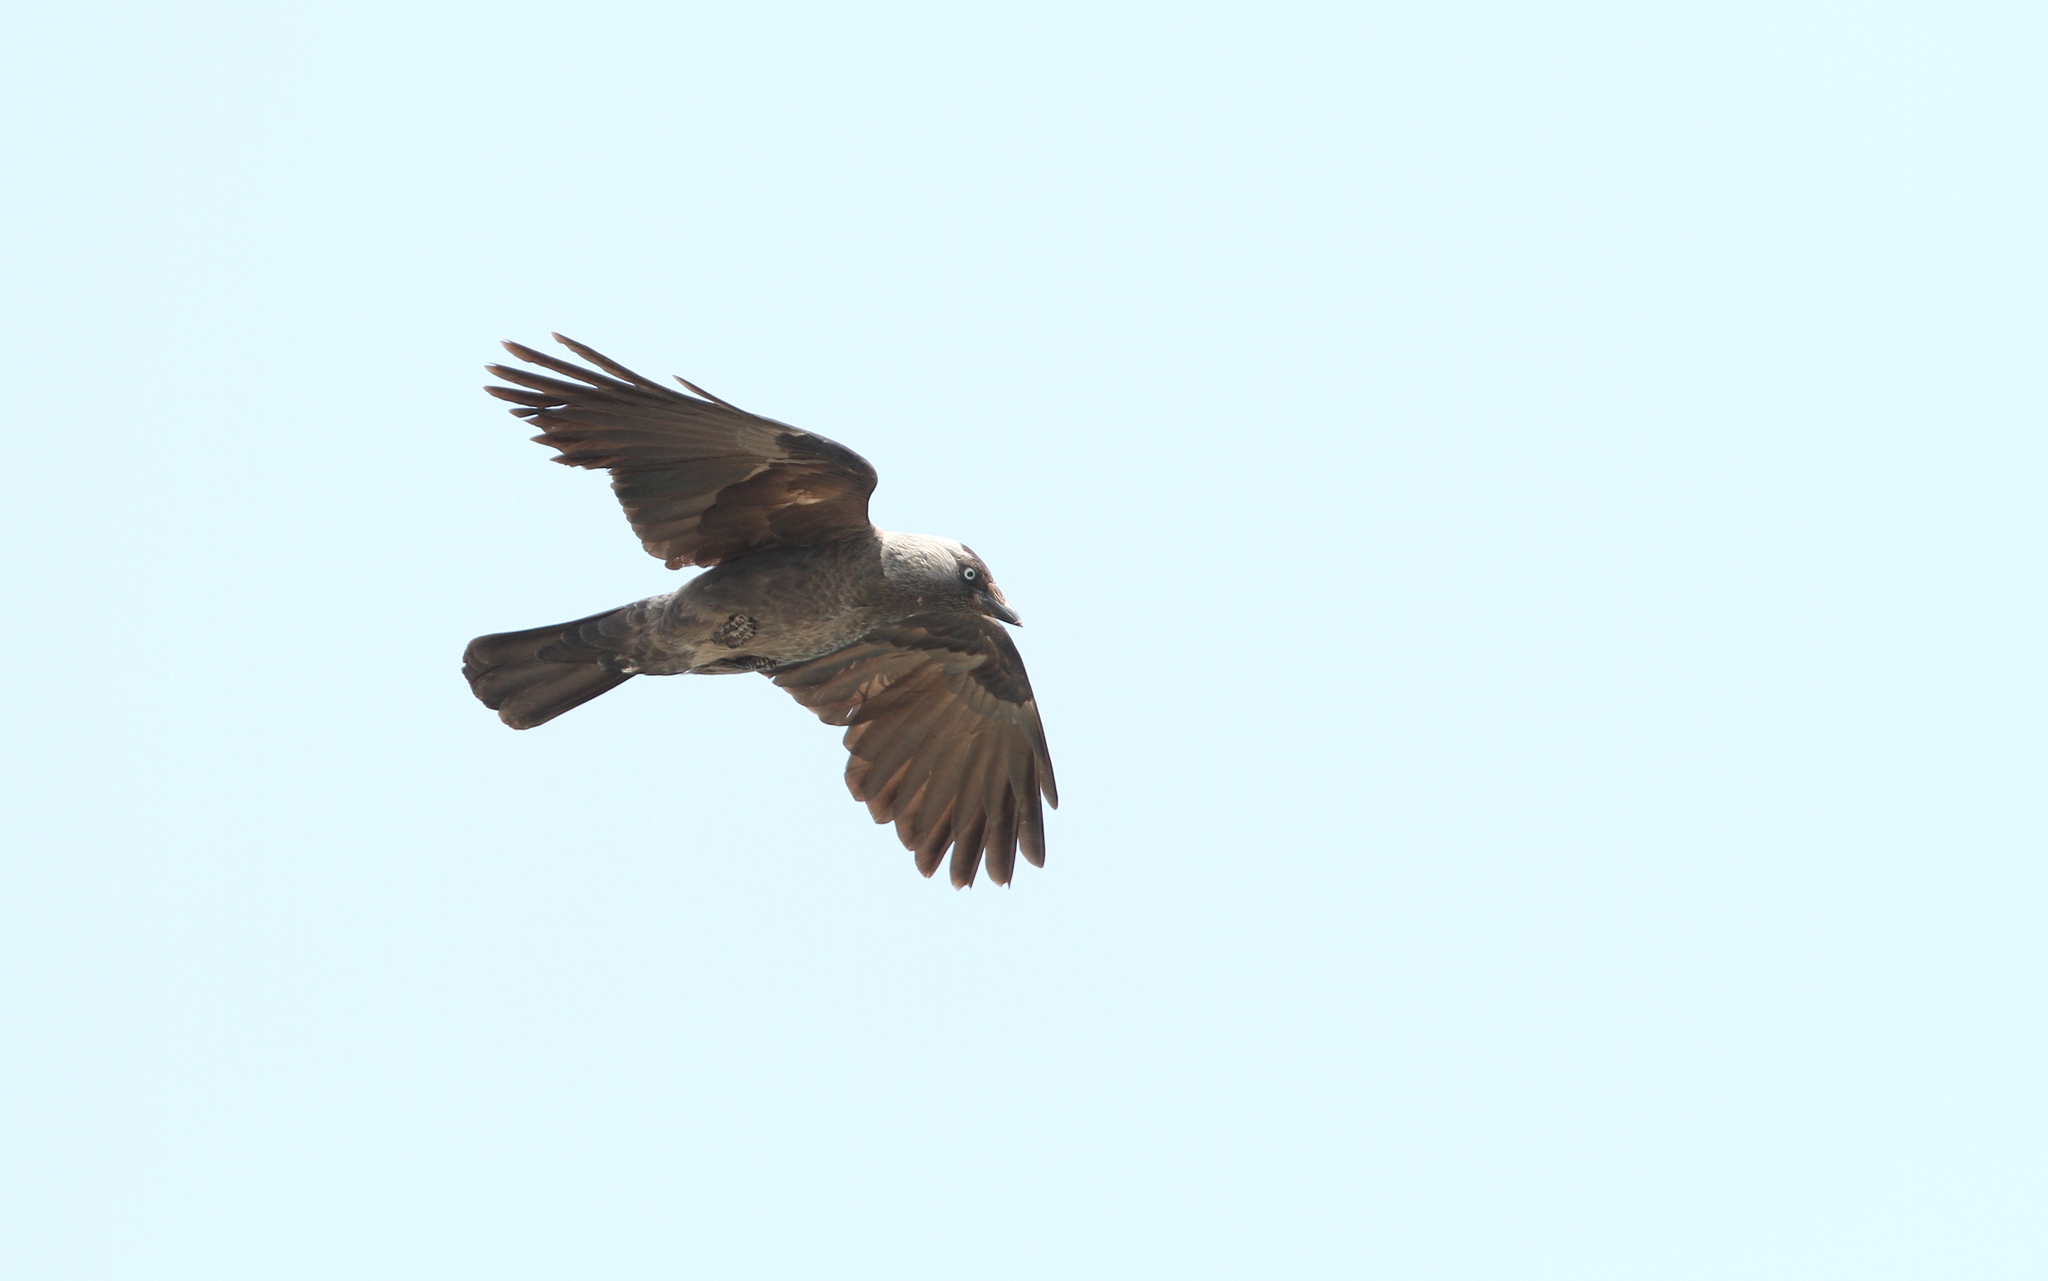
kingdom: Animalia
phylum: Chordata
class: Aves
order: Passeriformes
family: Corvidae
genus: Coloeus
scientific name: Coloeus monedula
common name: Western jackdaw
